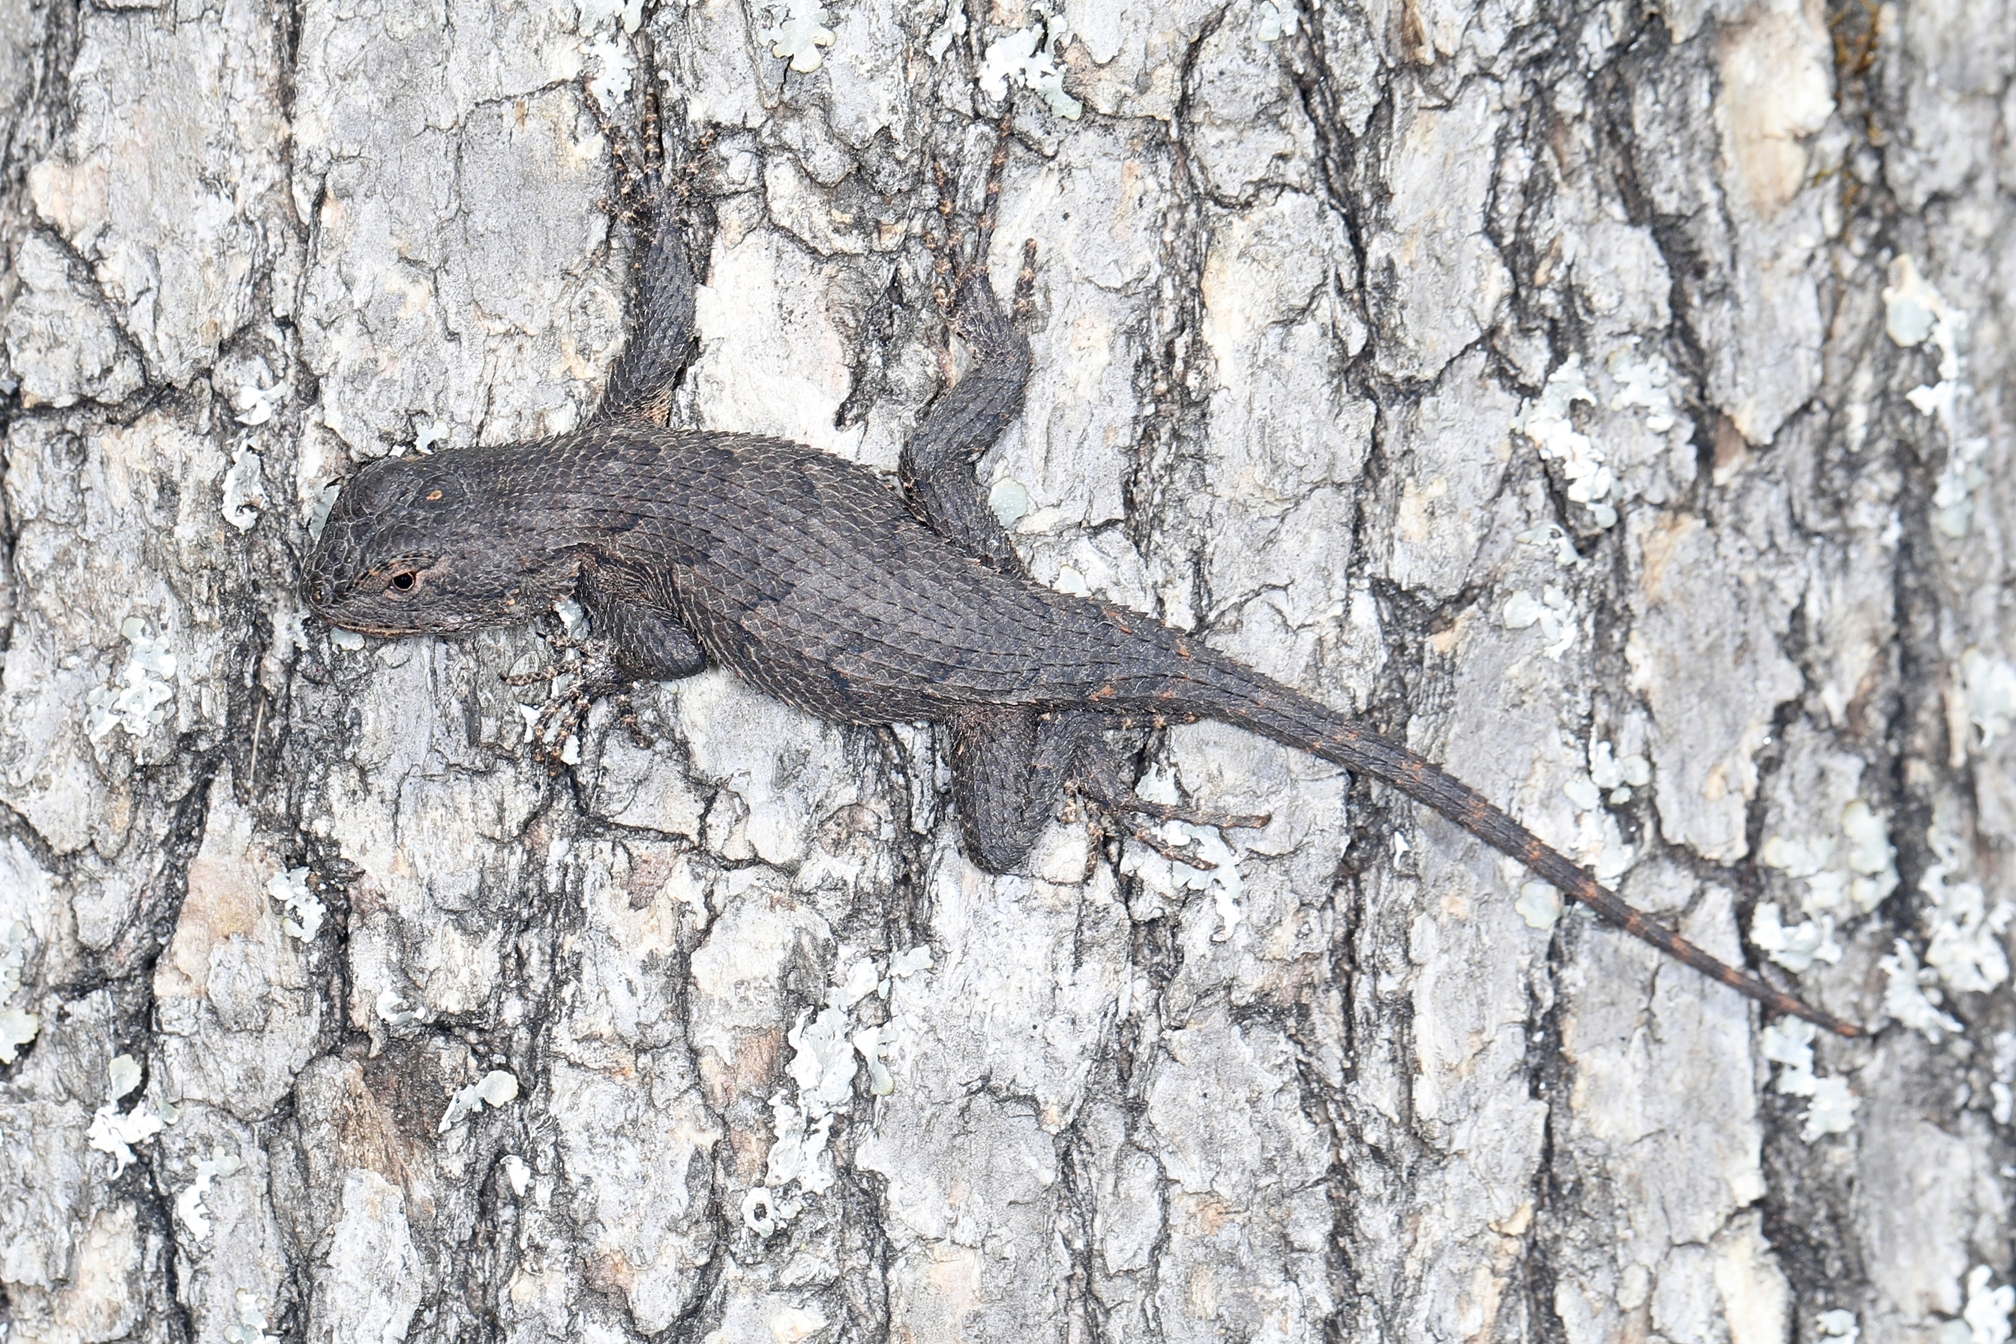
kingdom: Animalia
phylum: Chordata
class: Squamata
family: Phrynosomatidae
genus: Sceloporus
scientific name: Sceloporus undulatus
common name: Eastern fence lizard
